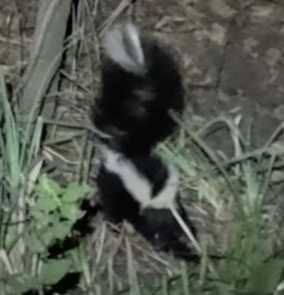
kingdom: Animalia
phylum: Chordata
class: Mammalia
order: Carnivora
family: Mephitidae
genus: Mephitis
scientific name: Mephitis mephitis
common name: Striped skunk
